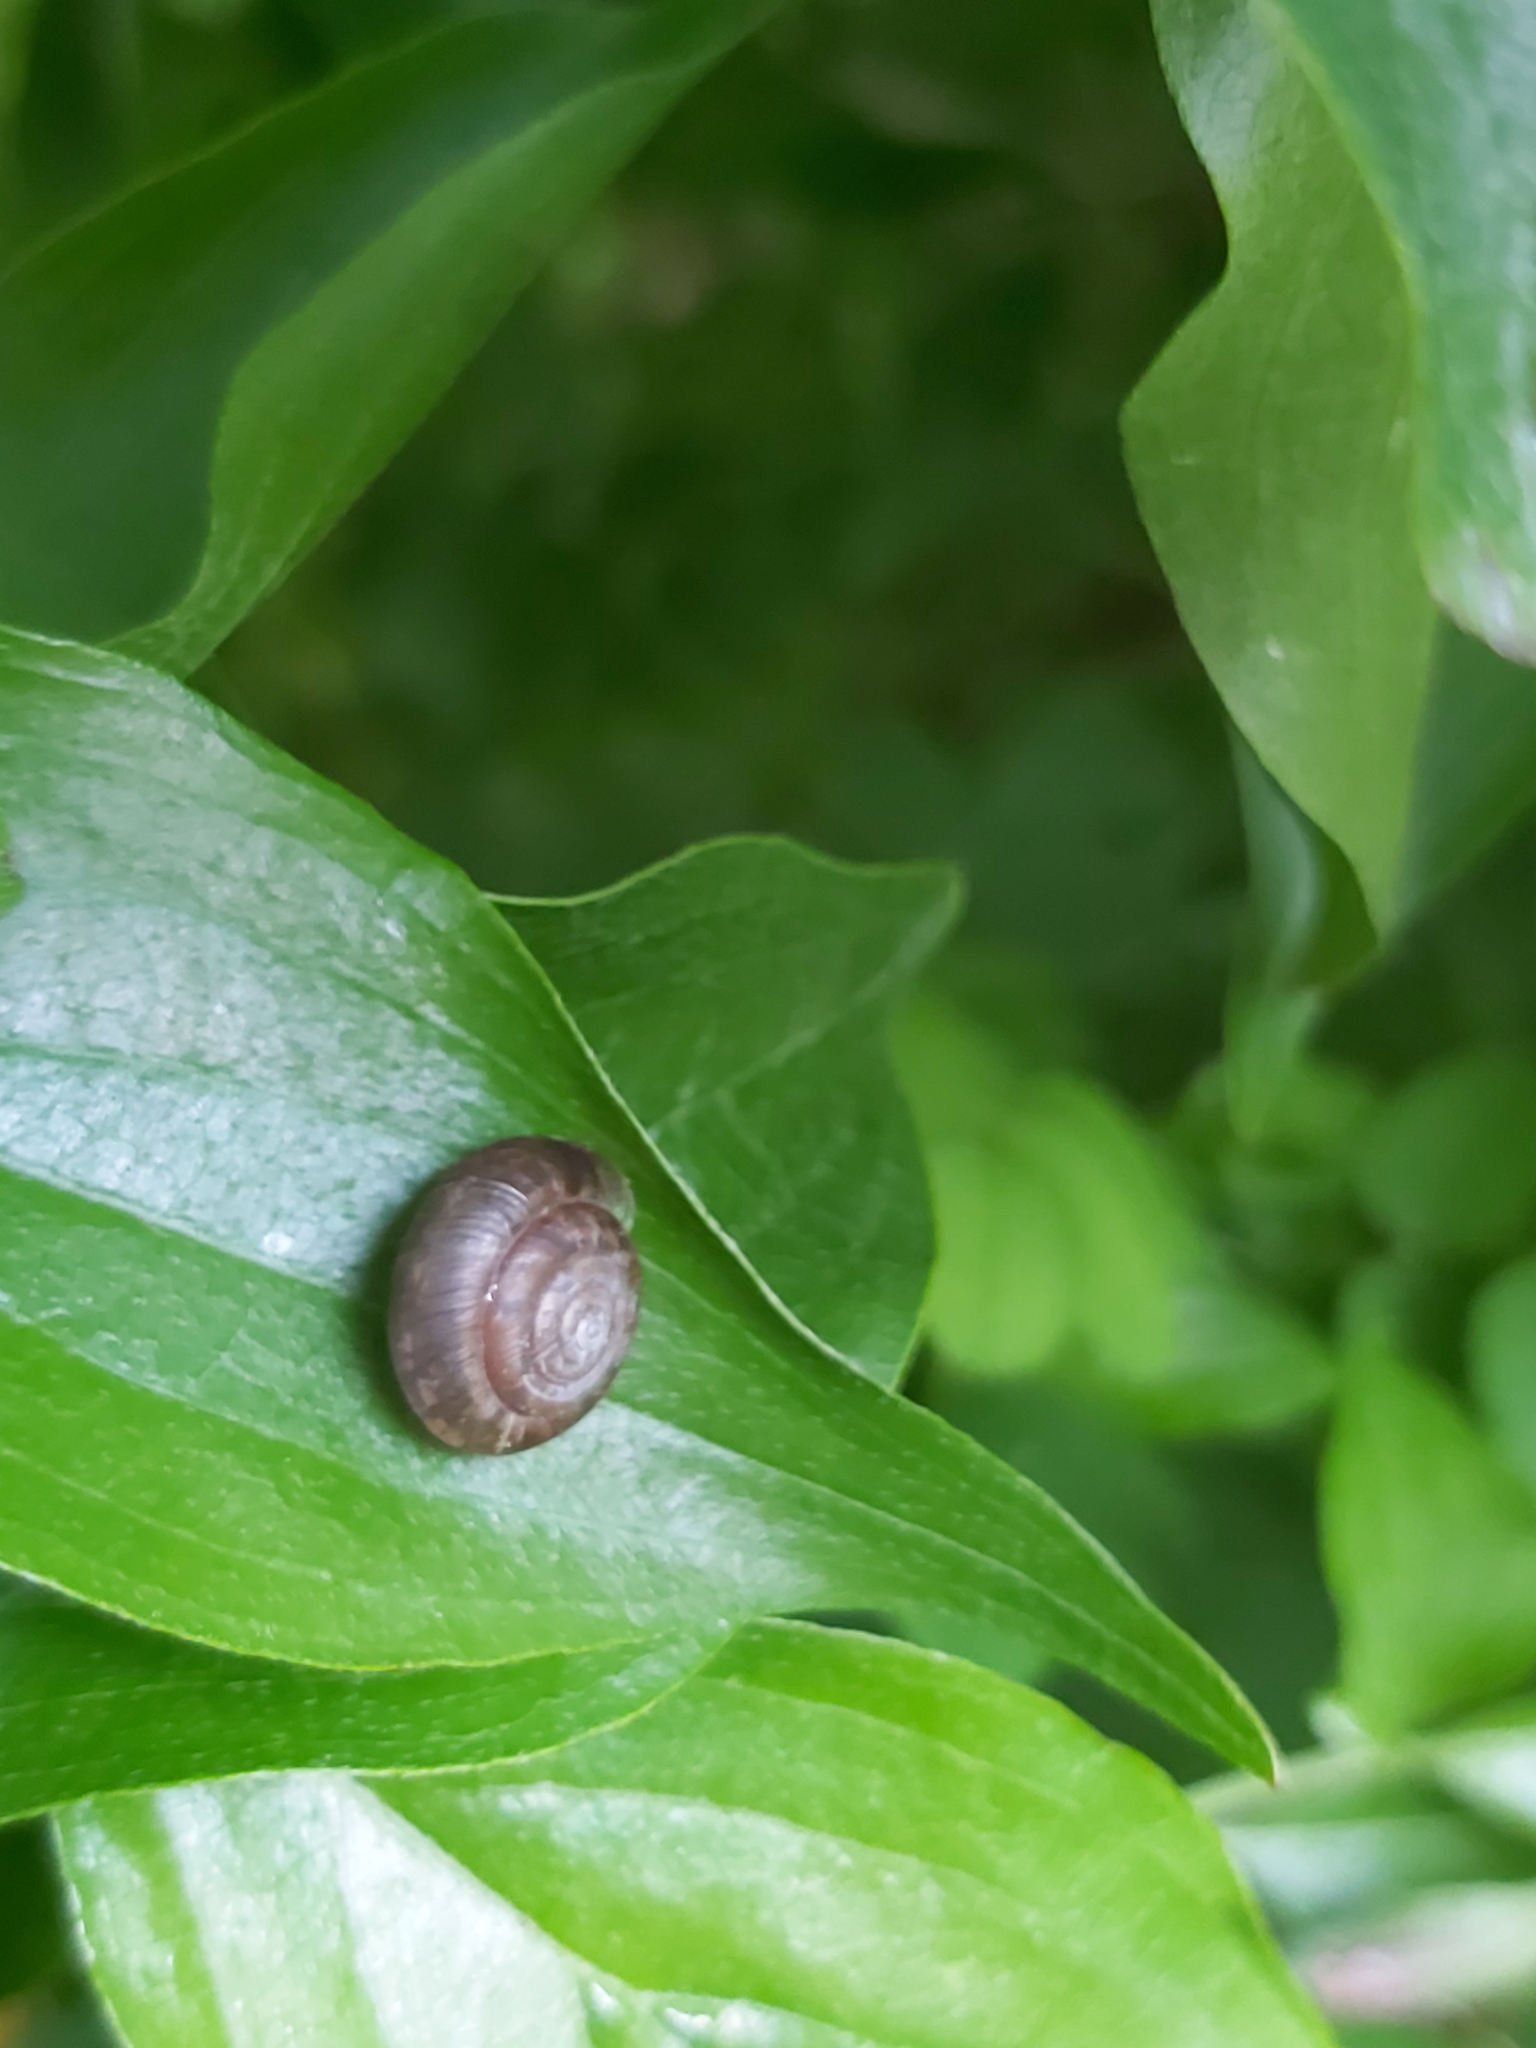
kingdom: Animalia
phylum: Mollusca
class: Gastropoda
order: Stylommatophora
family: Hygromiidae
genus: Trochulus
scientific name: Trochulus striolatus
